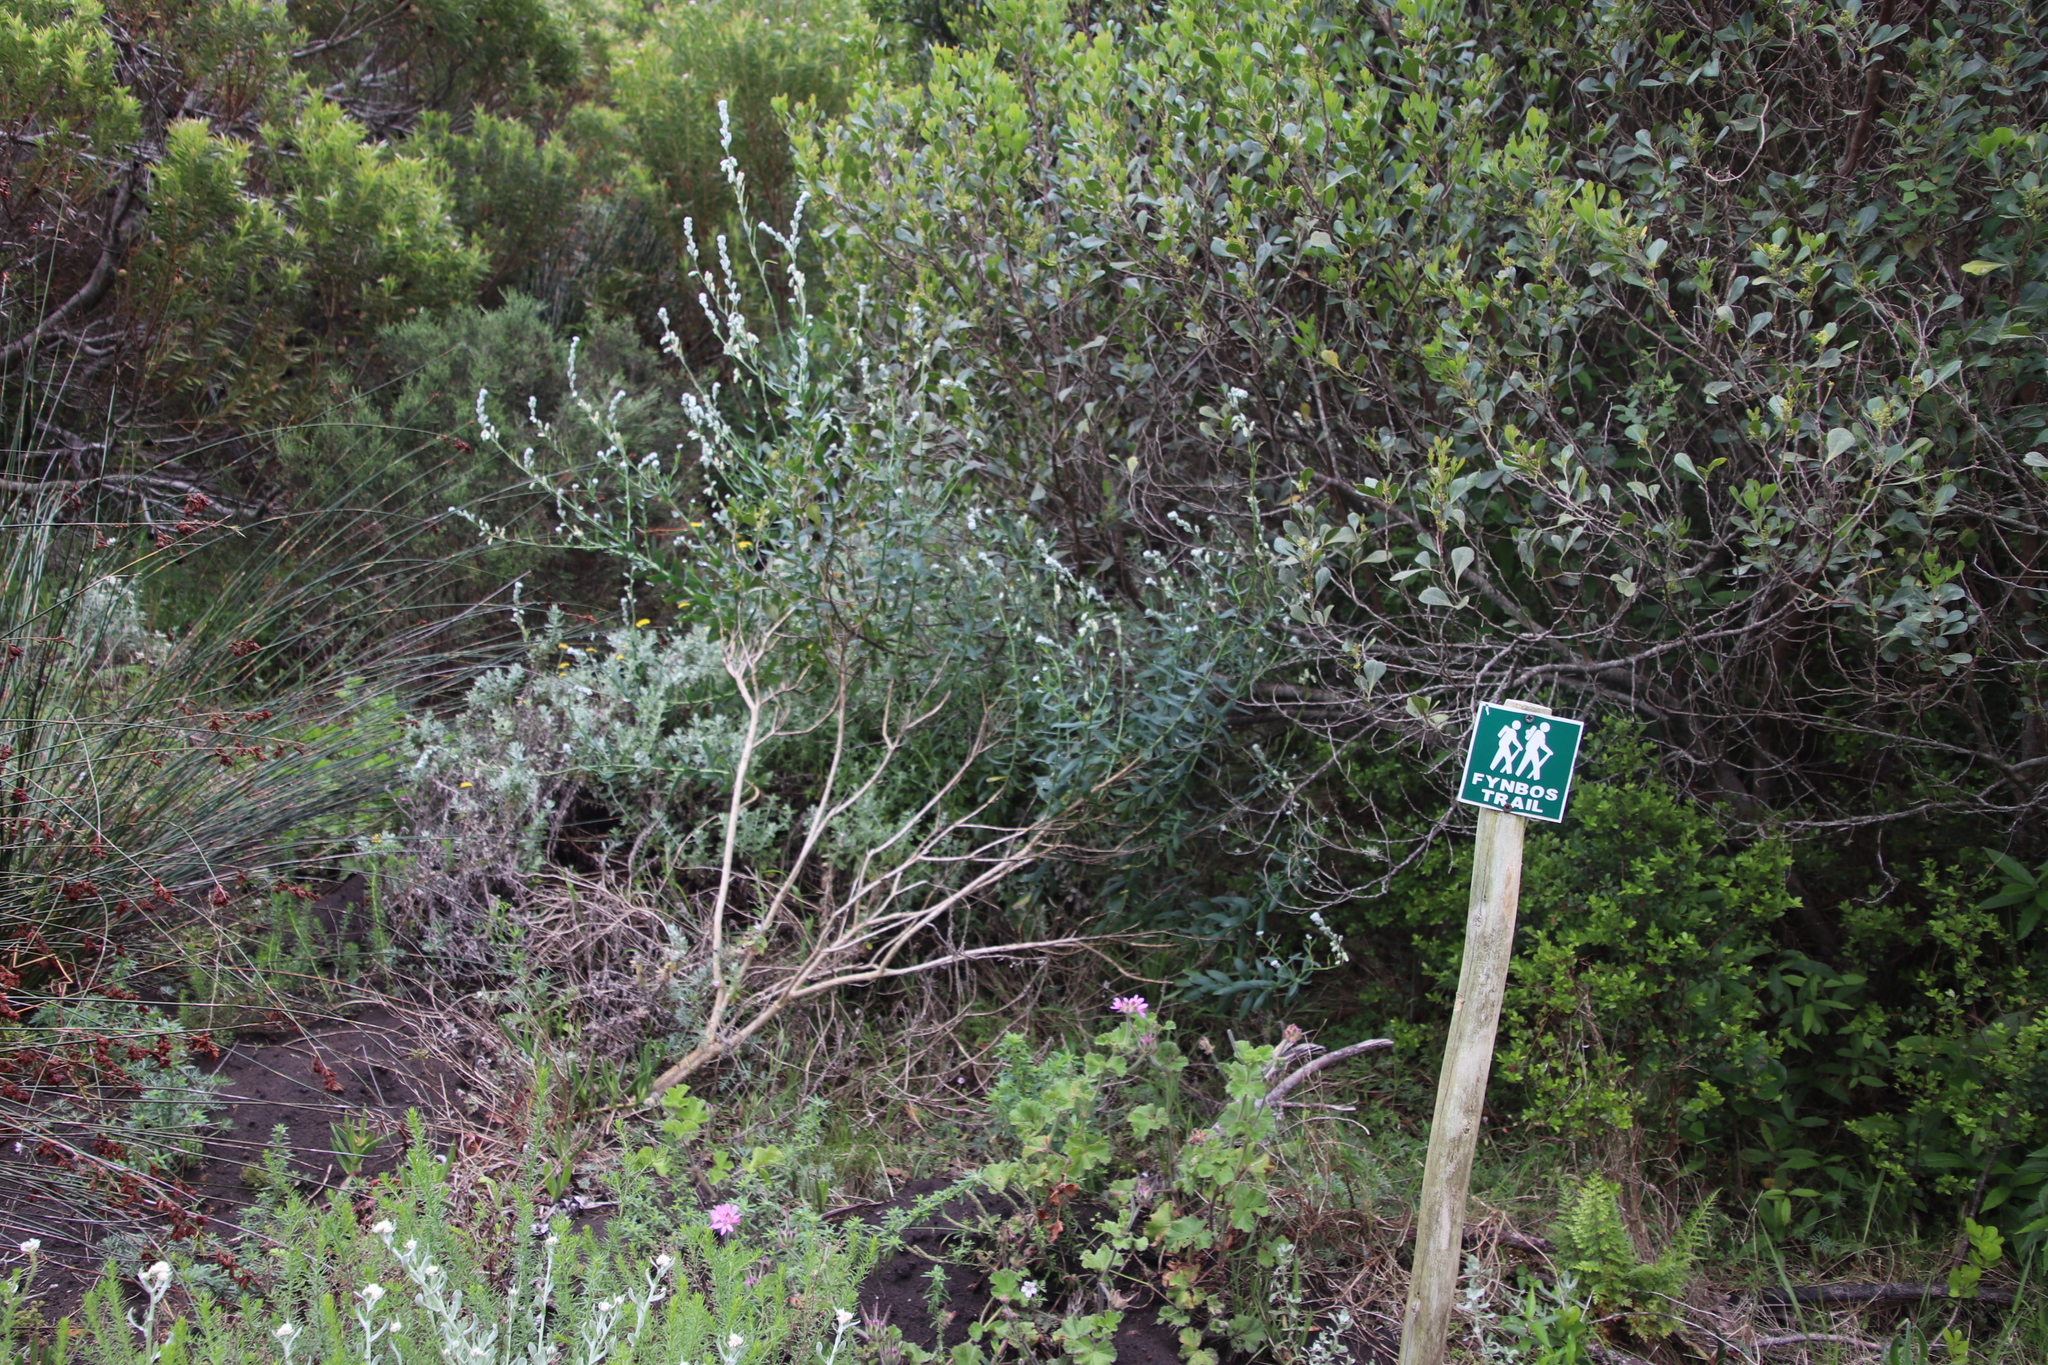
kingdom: Plantae
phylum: Tracheophyta
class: Magnoliopsida
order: Brassicales
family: Brassicaceae
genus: Heliophila
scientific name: Heliophila linearis
